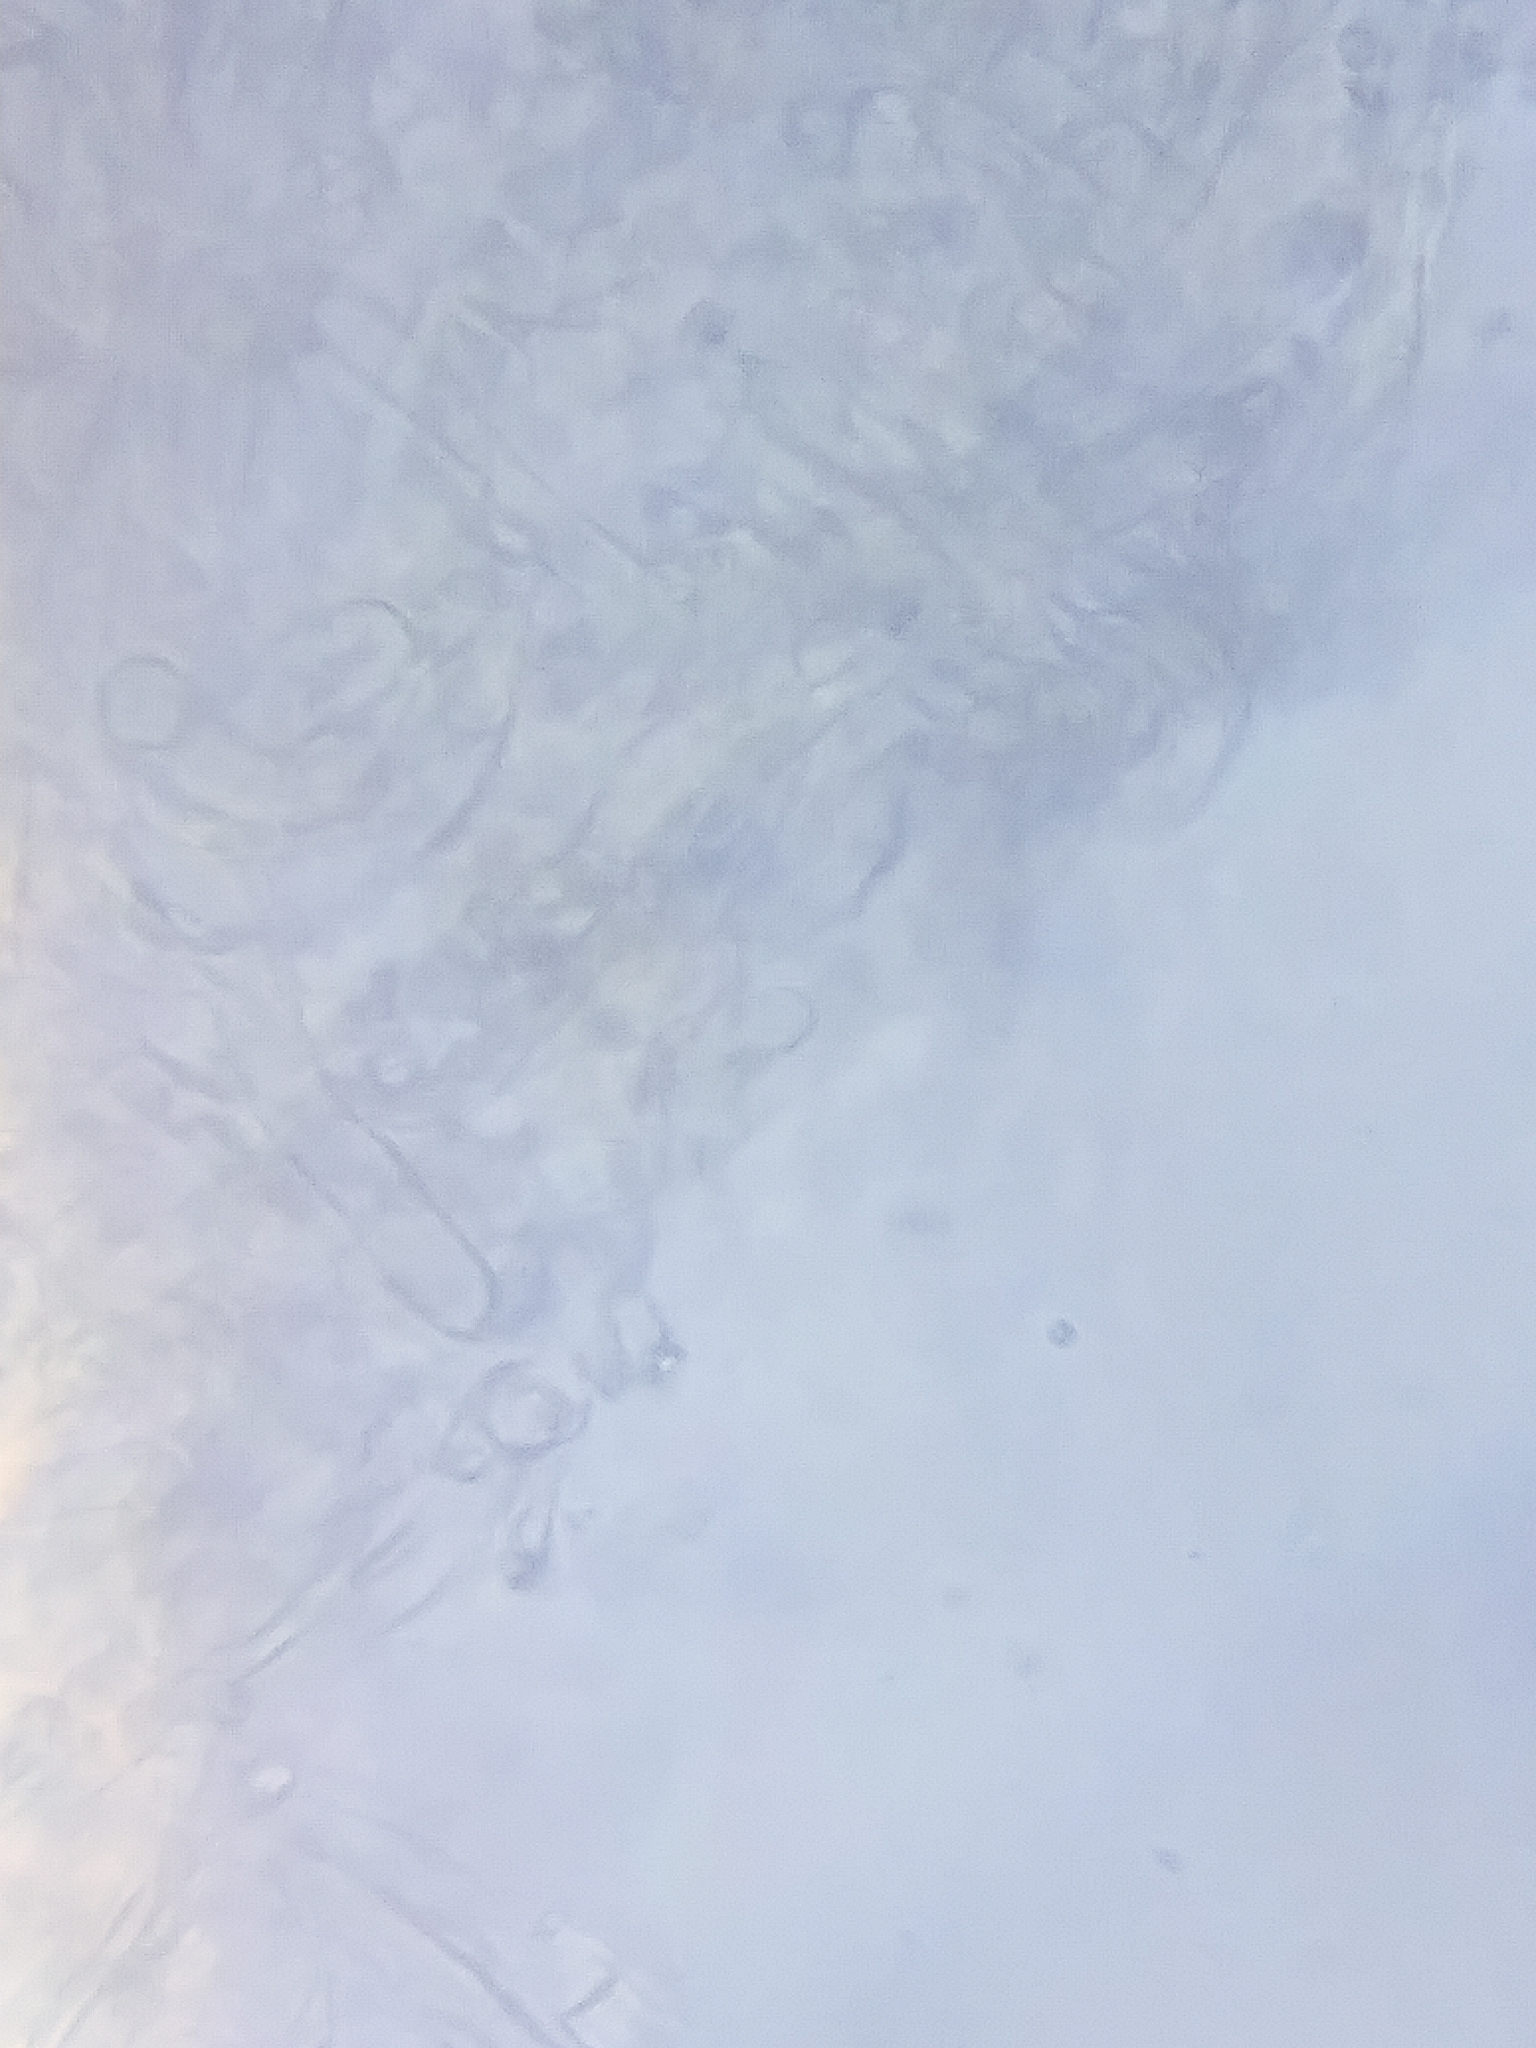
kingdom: Fungi
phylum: Basidiomycota
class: Agaricomycetes
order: Agaricales
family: Tricholomataceae
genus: Tricholoma
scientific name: Tricholoma saponaceum
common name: Soapy trich
